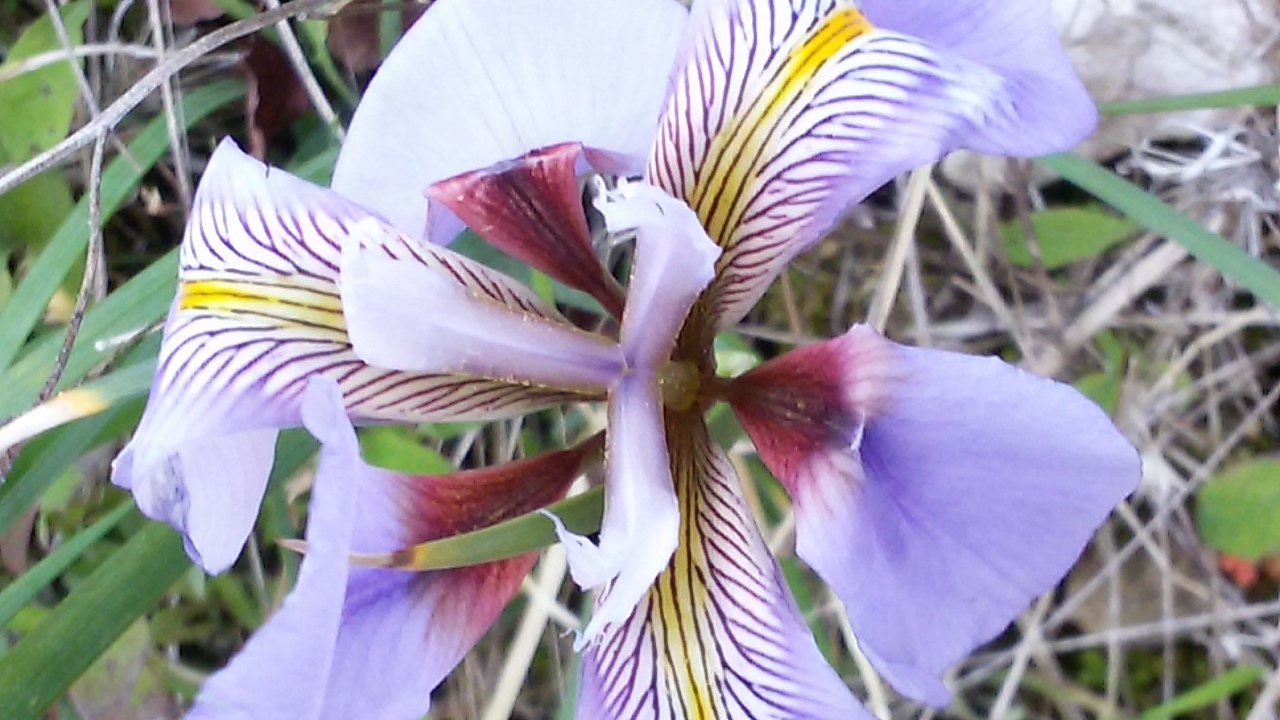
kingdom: Plantae
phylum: Tracheophyta
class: Liliopsida
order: Asparagales
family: Iridaceae
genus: Iris
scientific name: Iris unguicularis
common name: Algerian iris
